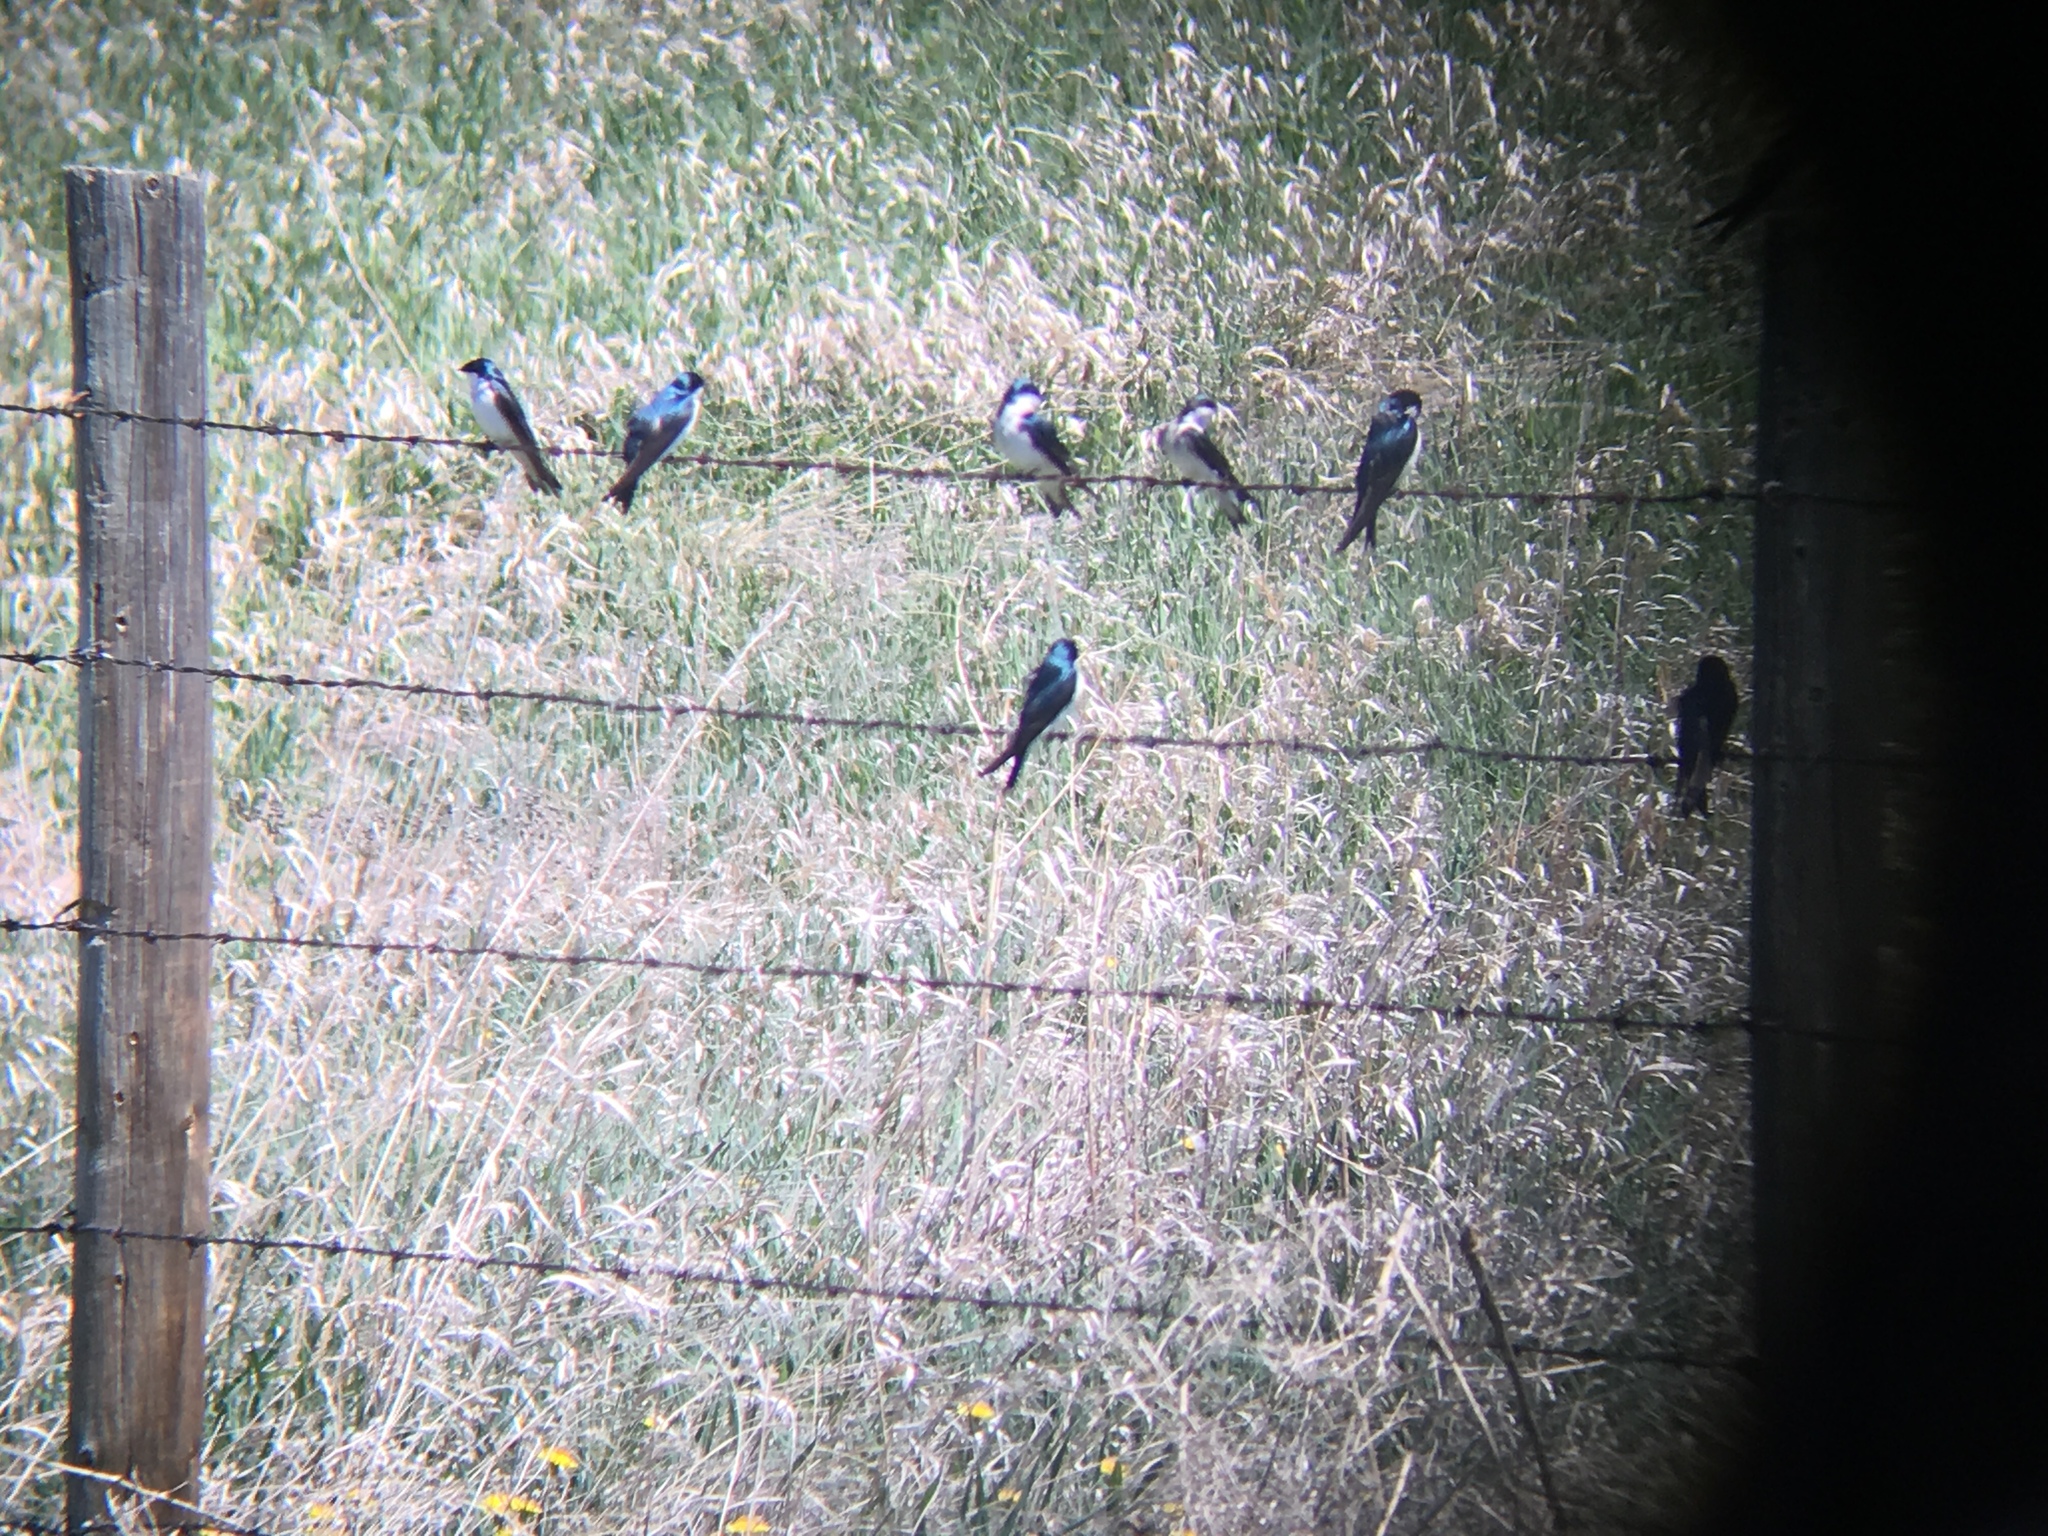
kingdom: Animalia
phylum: Chordata
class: Aves
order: Passeriformes
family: Hirundinidae
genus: Tachycineta
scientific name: Tachycineta bicolor
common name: Tree swallow
